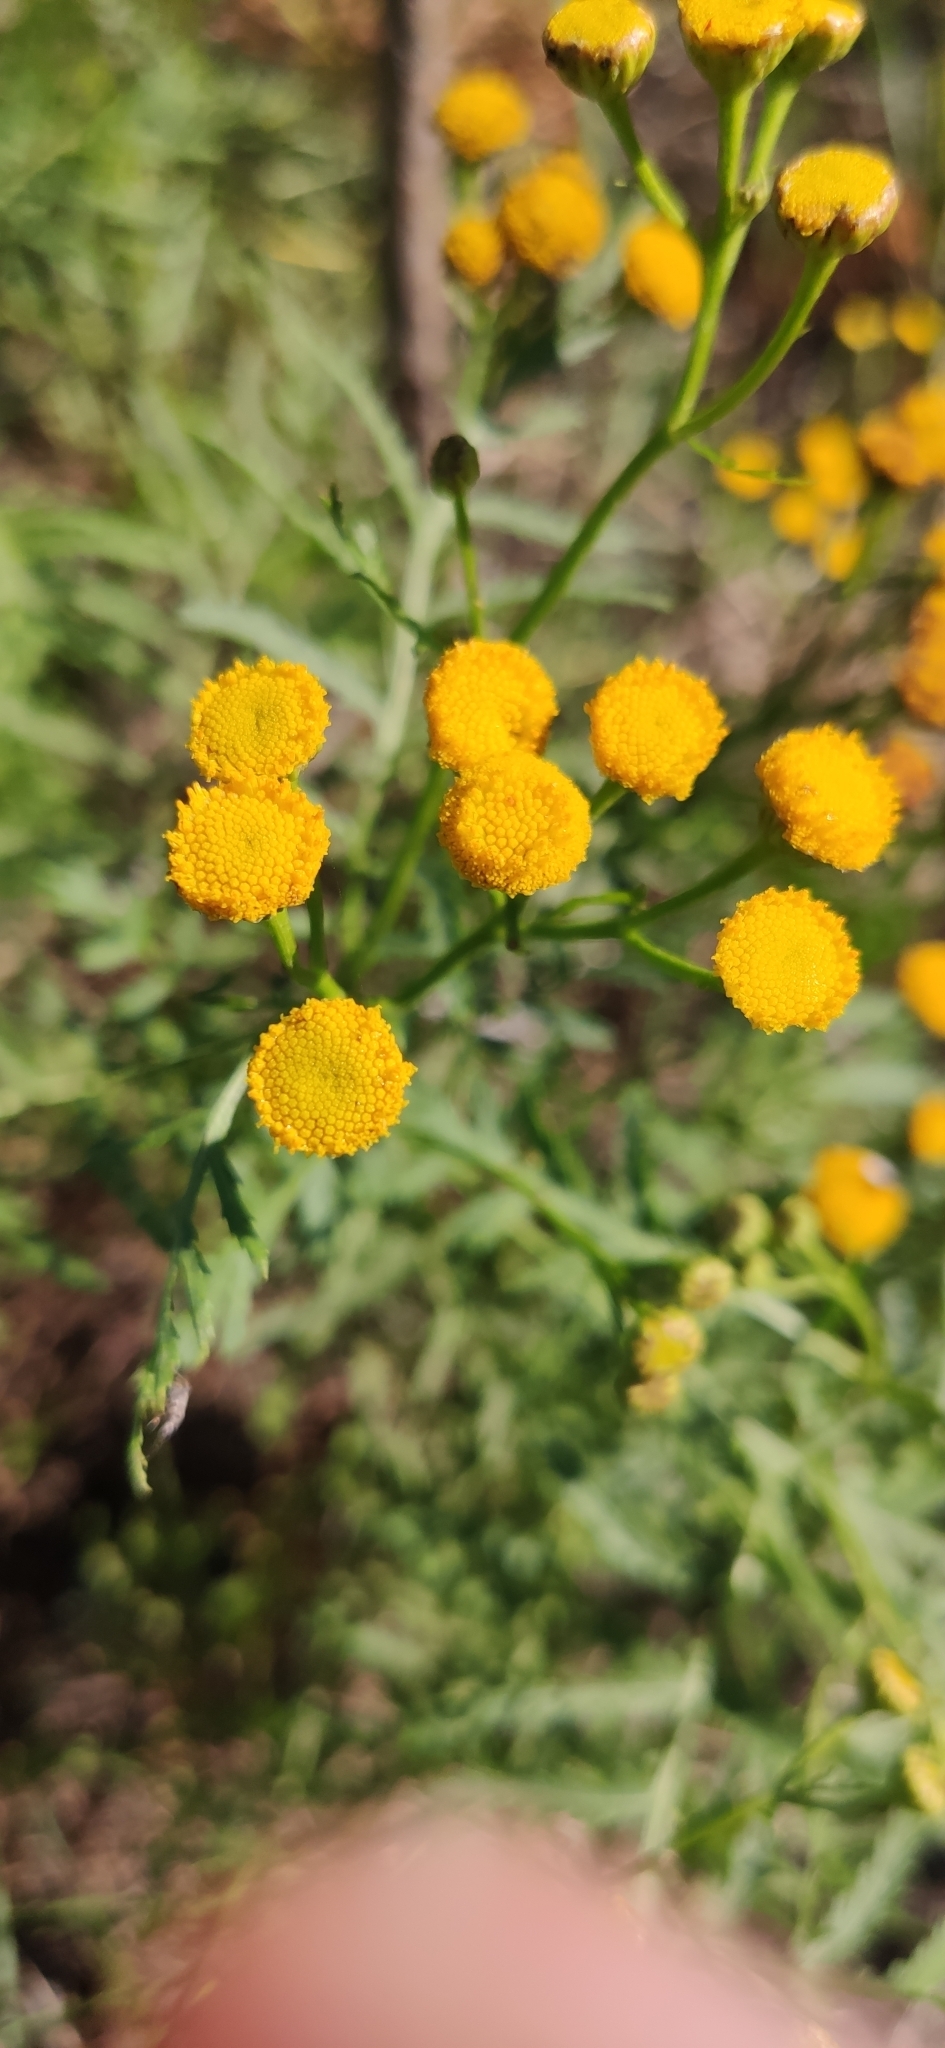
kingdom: Plantae
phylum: Tracheophyta
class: Magnoliopsida
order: Asterales
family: Asteraceae
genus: Tanacetum
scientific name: Tanacetum vulgare
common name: Common tansy
